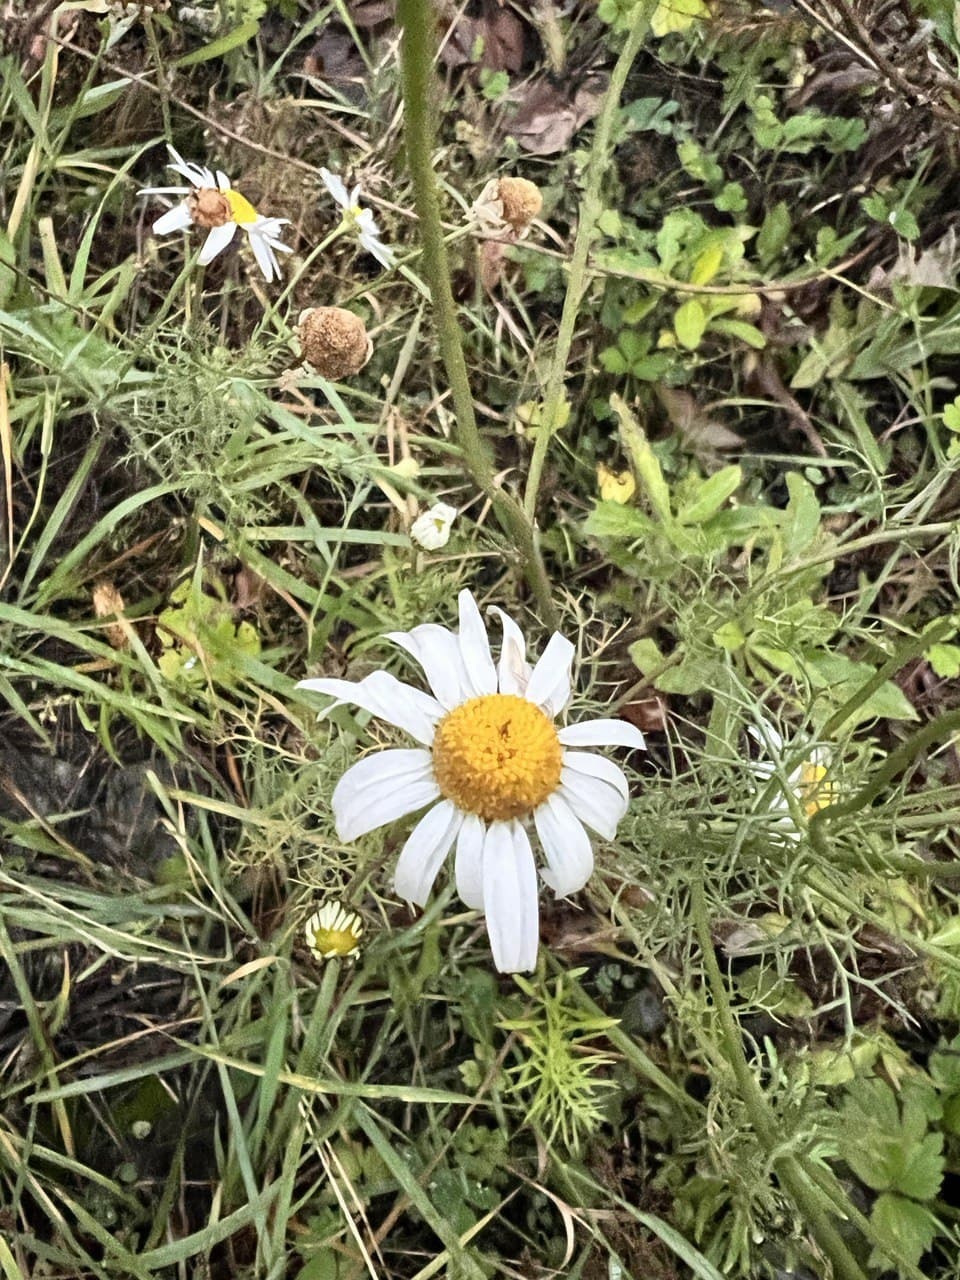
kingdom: Plantae
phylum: Tracheophyta
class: Magnoliopsida
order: Asterales
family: Asteraceae
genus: Tripleurospermum
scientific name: Tripleurospermum inodorum
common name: Scentless mayweed
